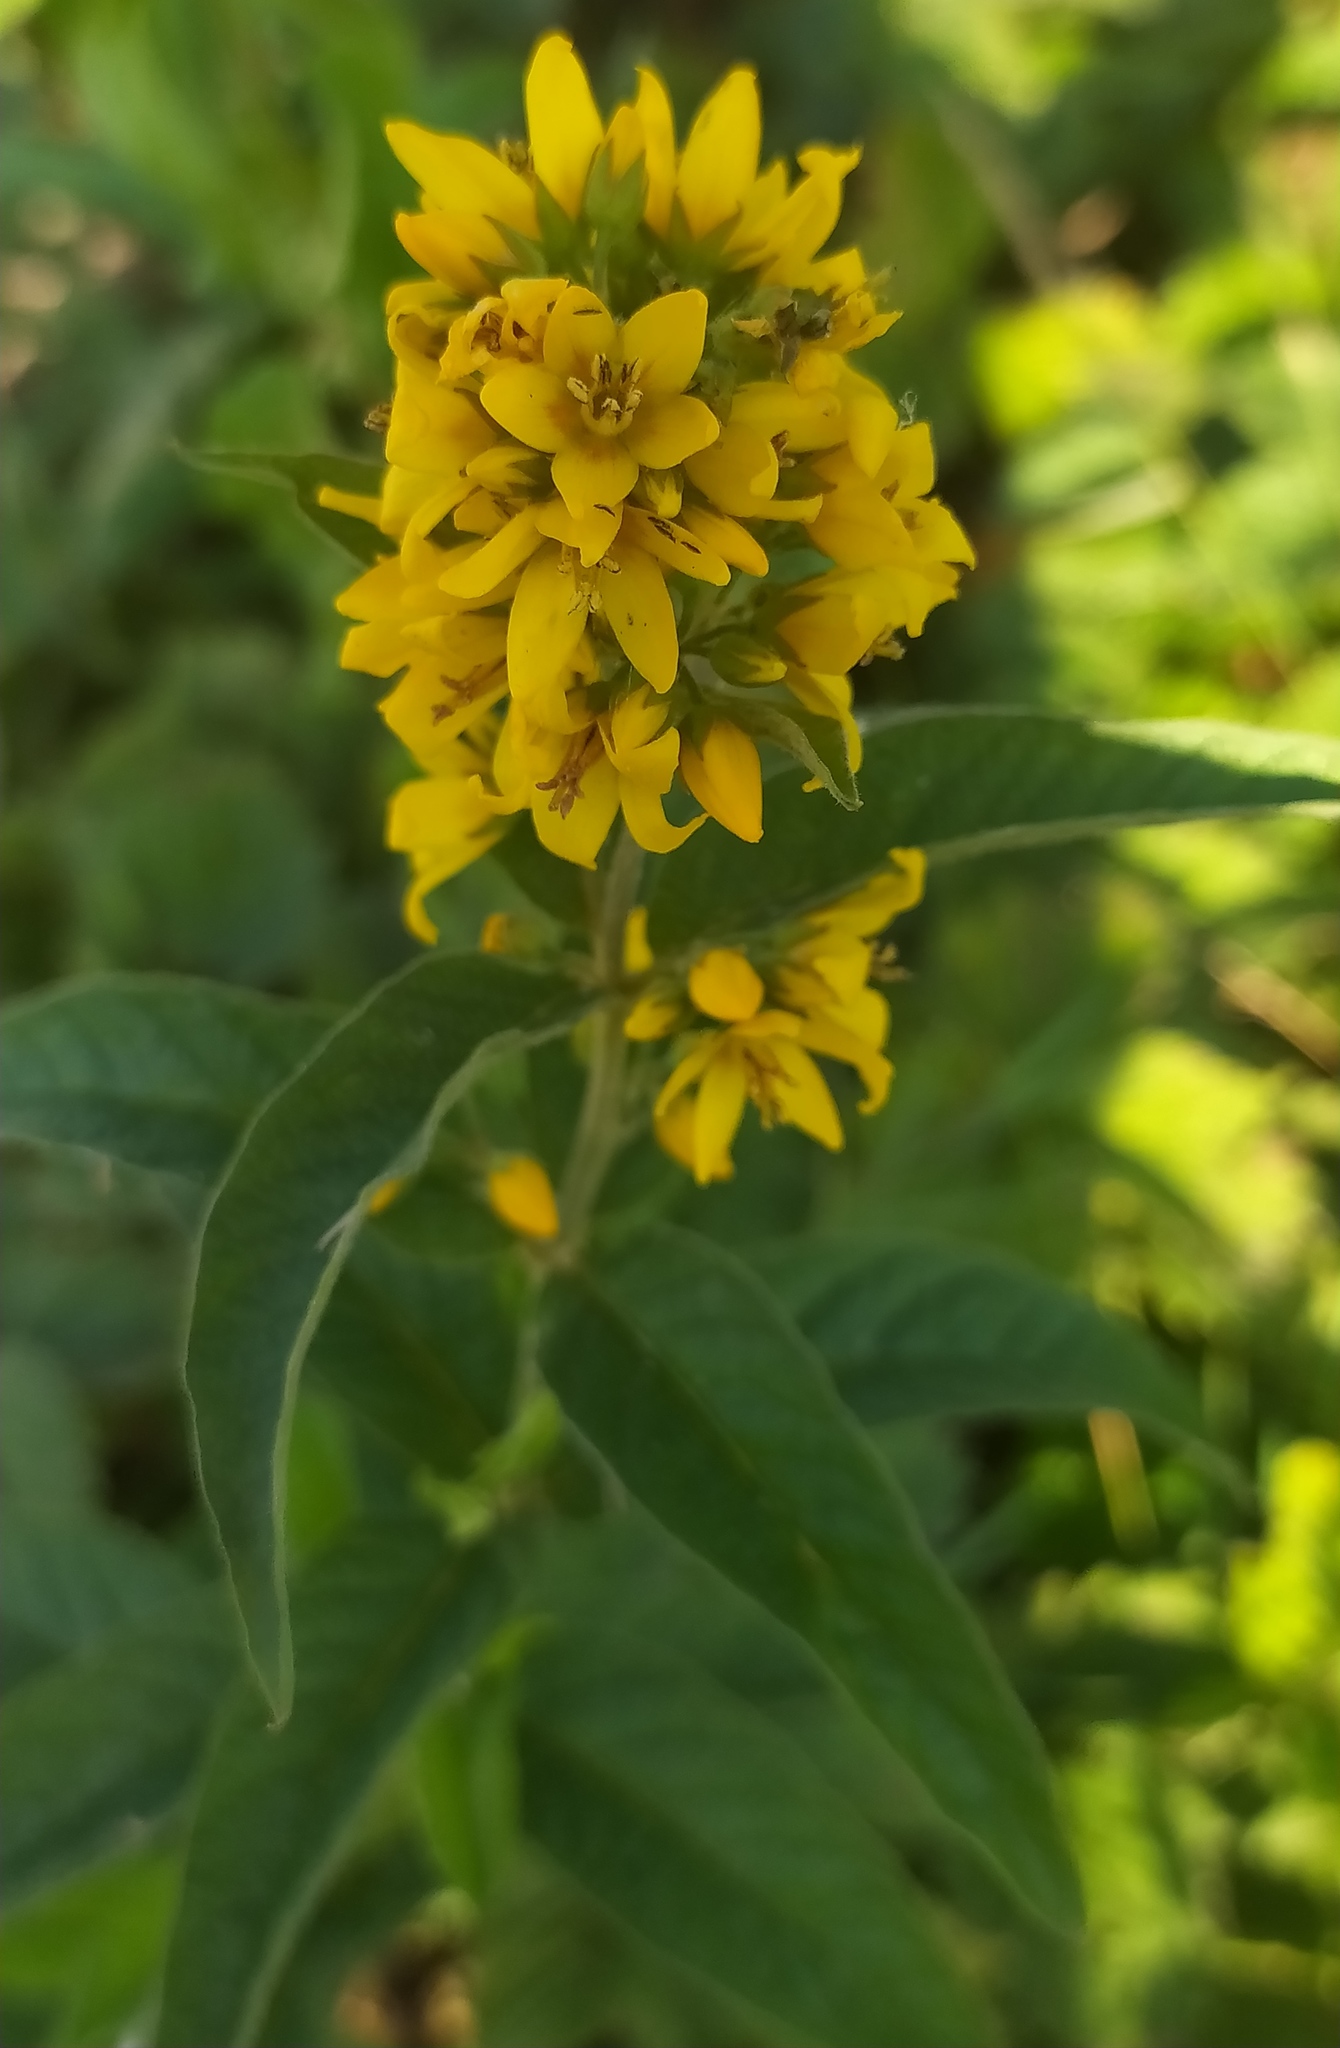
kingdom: Plantae
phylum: Tracheophyta
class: Magnoliopsida
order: Ericales
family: Primulaceae
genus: Lysimachia
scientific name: Lysimachia vulgaris
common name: Yellow loosestrife
